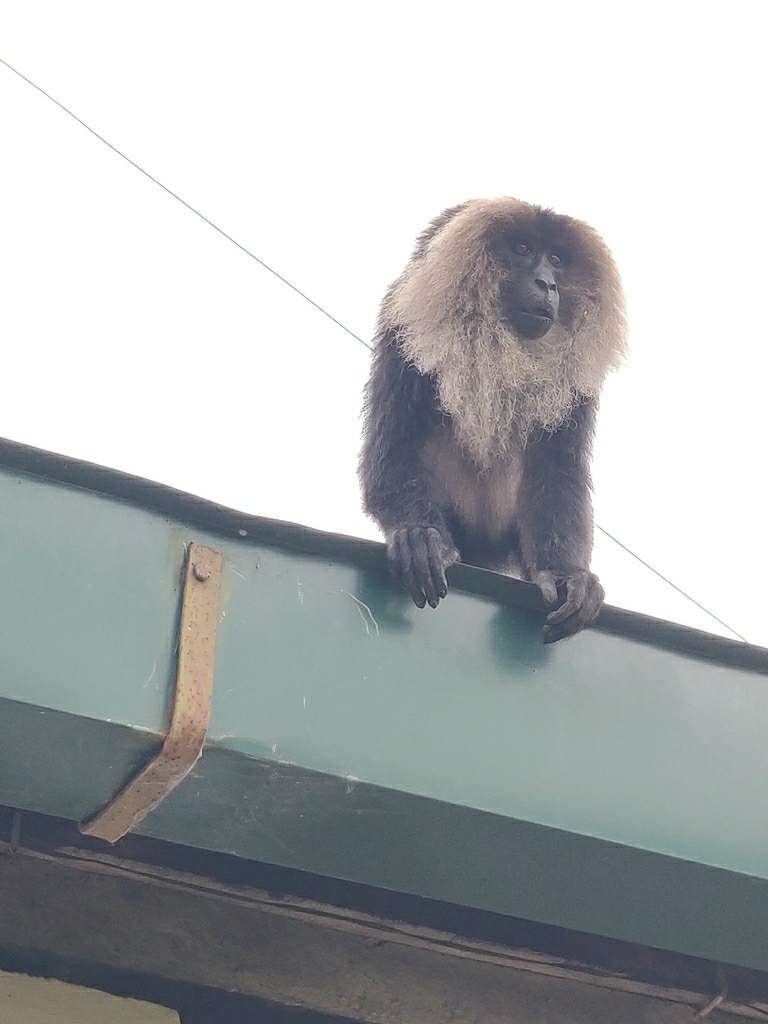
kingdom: Animalia
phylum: Chordata
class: Mammalia
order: Primates
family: Cercopithecidae
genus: Macaca
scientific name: Macaca silenus
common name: Lion-tailed macaque
